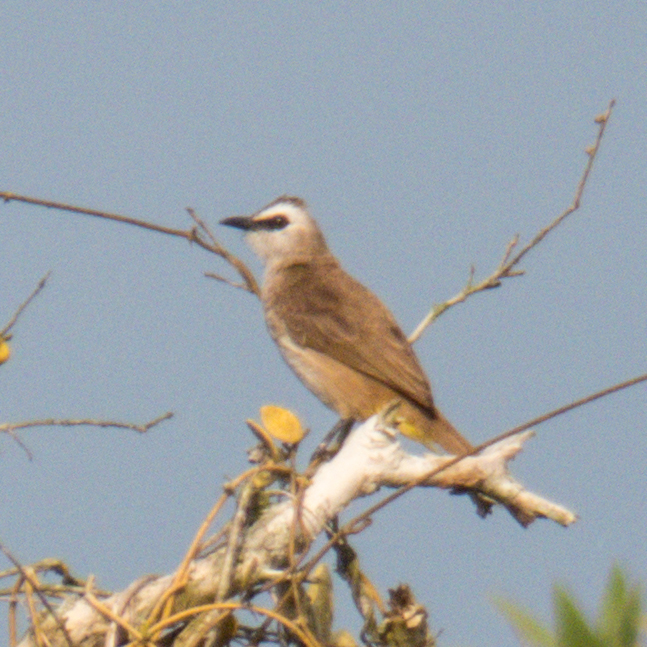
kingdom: Animalia
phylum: Chordata
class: Aves
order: Passeriformes
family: Pycnonotidae
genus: Pycnonotus
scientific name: Pycnonotus goiavier
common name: Yellow-vented bulbul
